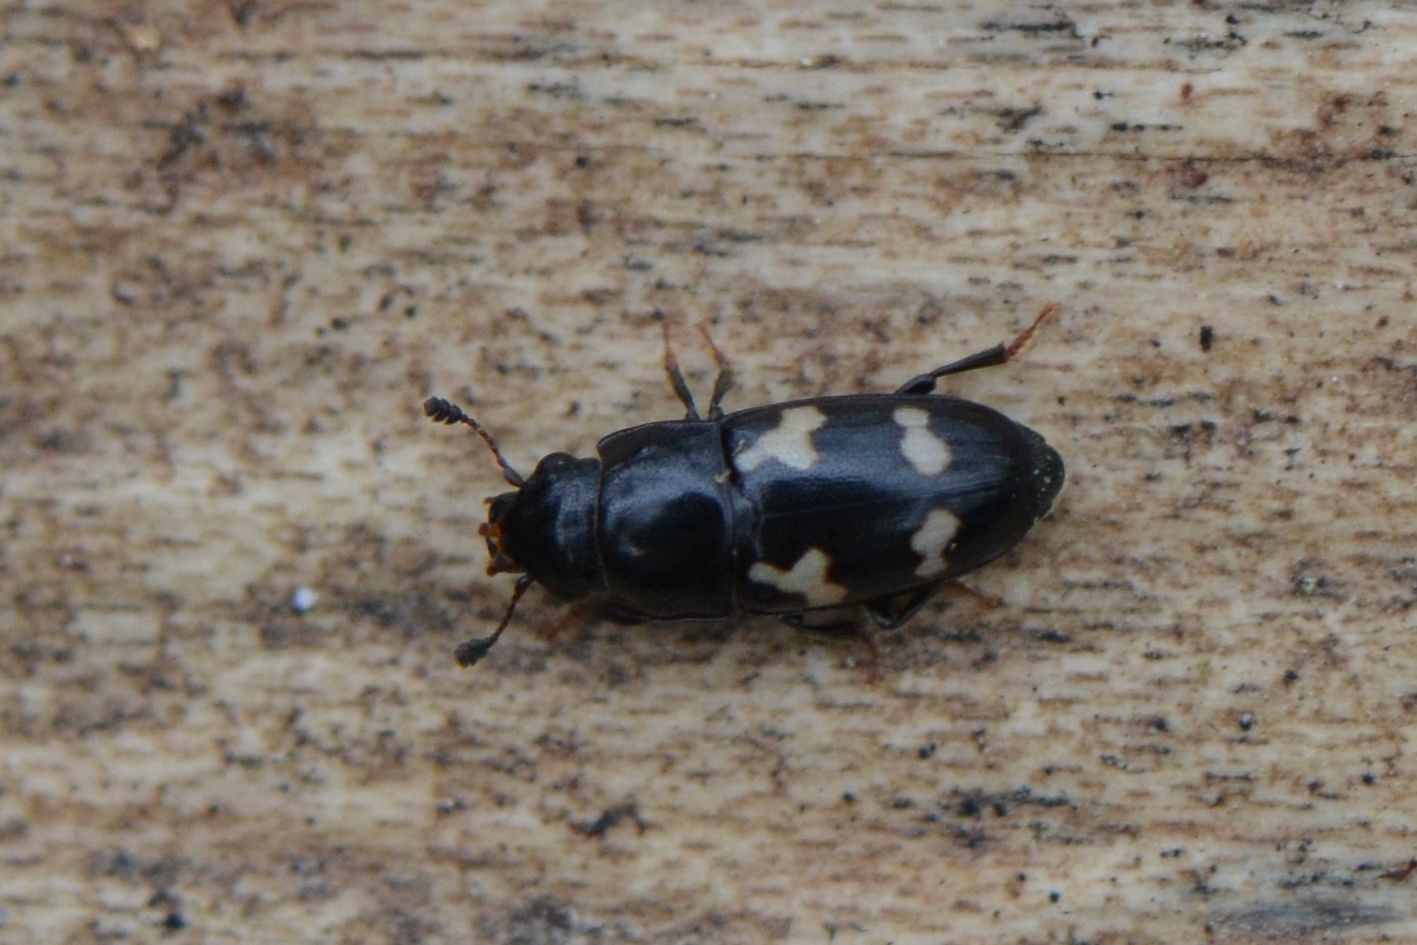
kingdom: Animalia
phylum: Arthropoda
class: Insecta
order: Coleoptera
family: Nitidulidae
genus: Glischrochilus
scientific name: Glischrochilus quadriguttatus
